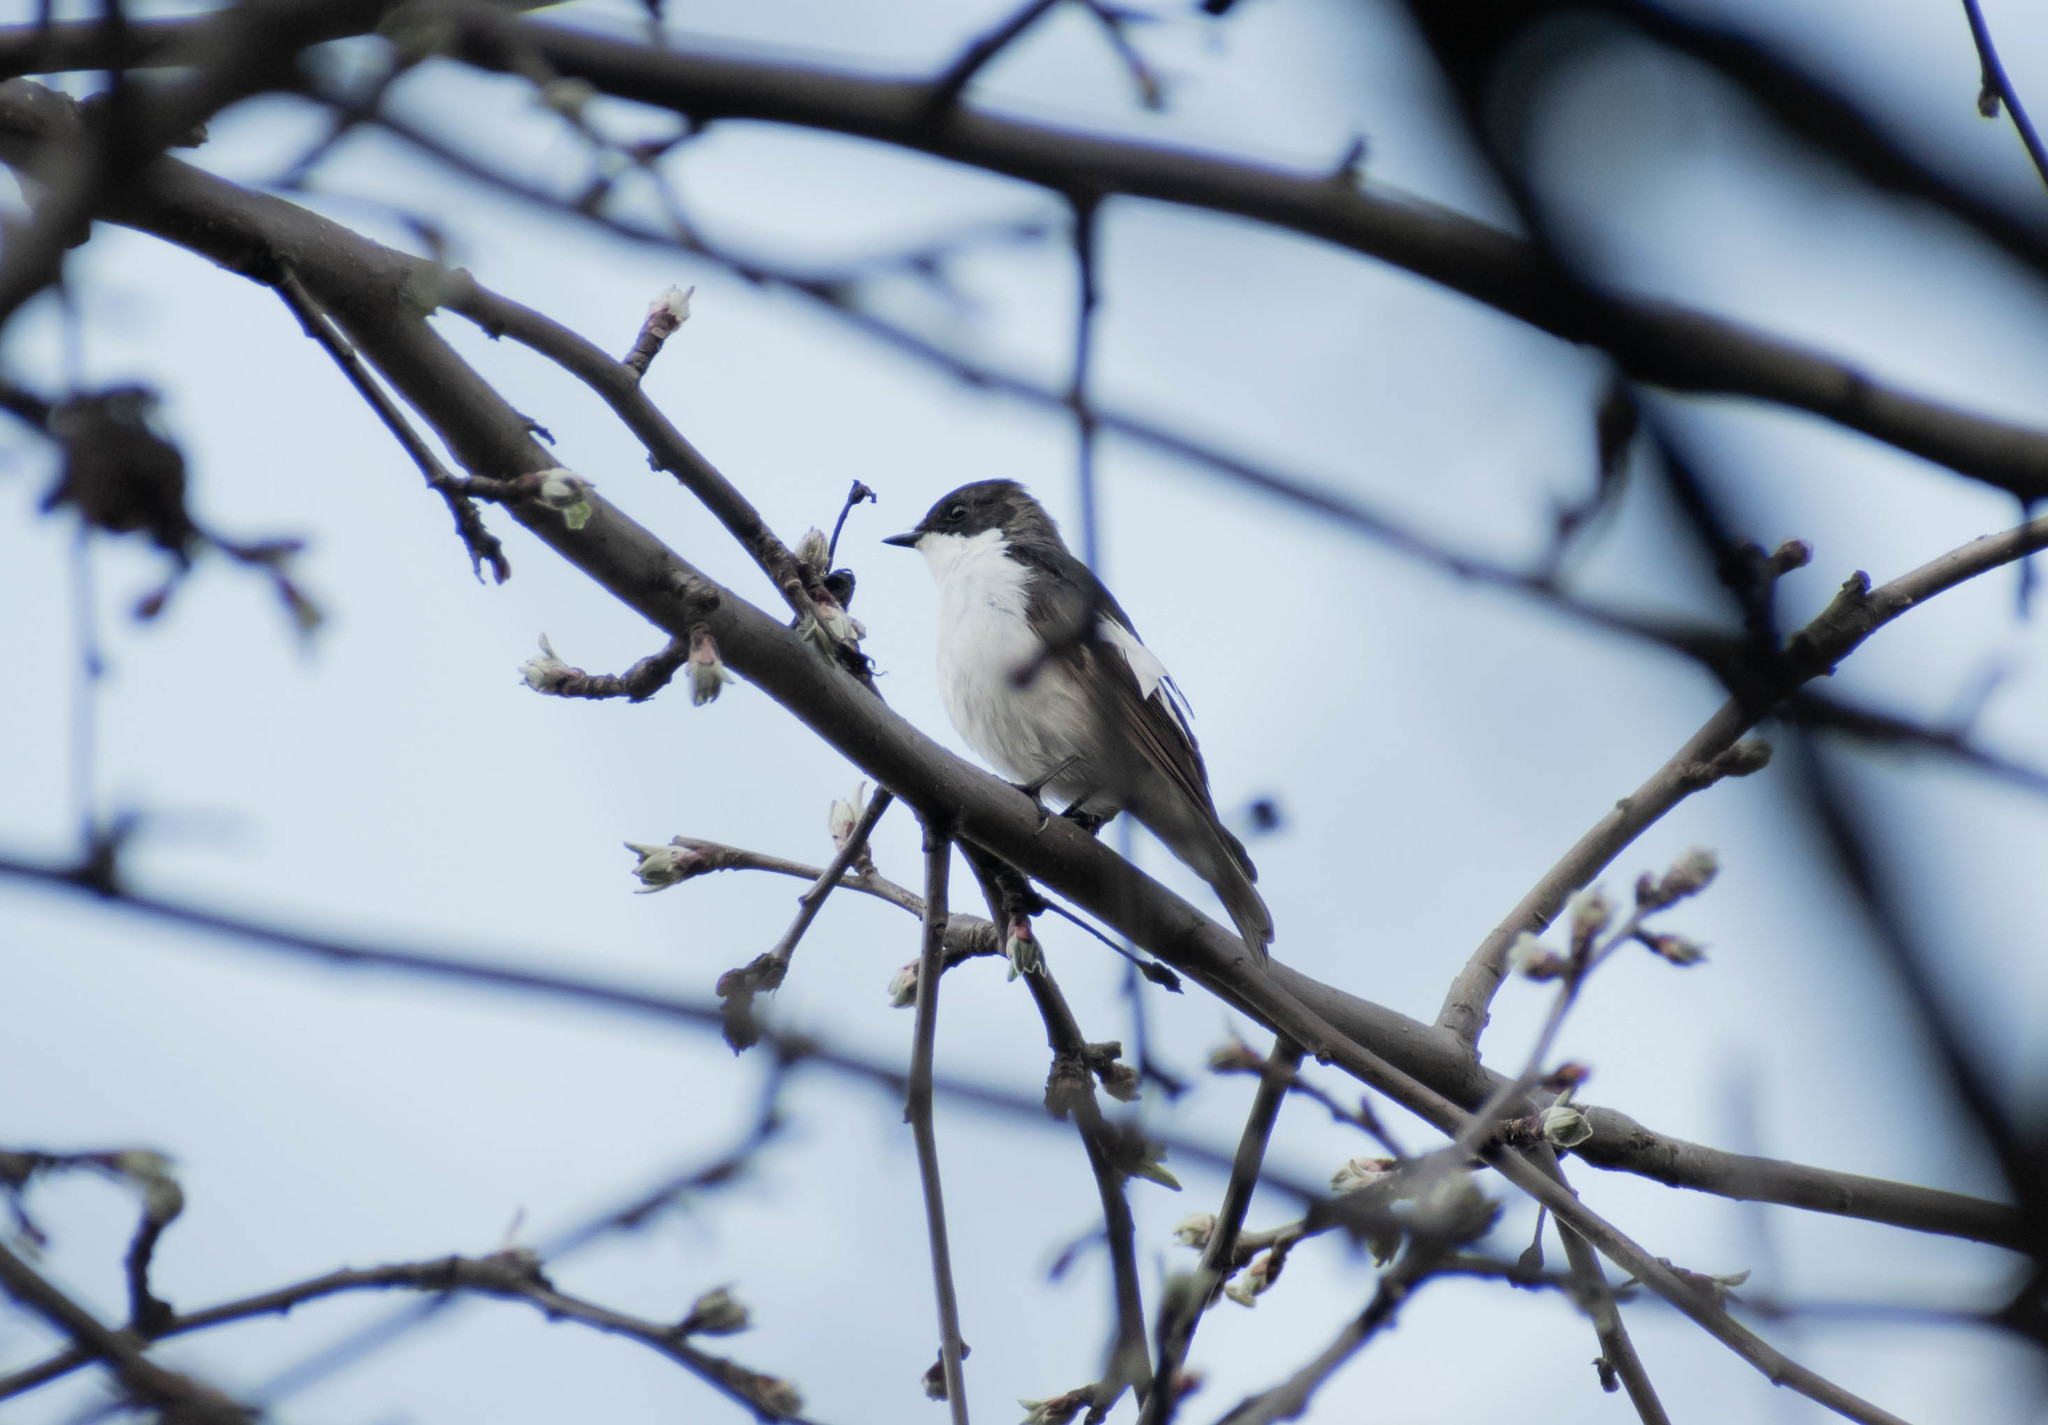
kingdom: Animalia
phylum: Chordata
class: Aves
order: Passeriformes
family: Muscicapidae
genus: Ficedula
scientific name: Ficedula hypoleuca
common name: European pied flycatcher
